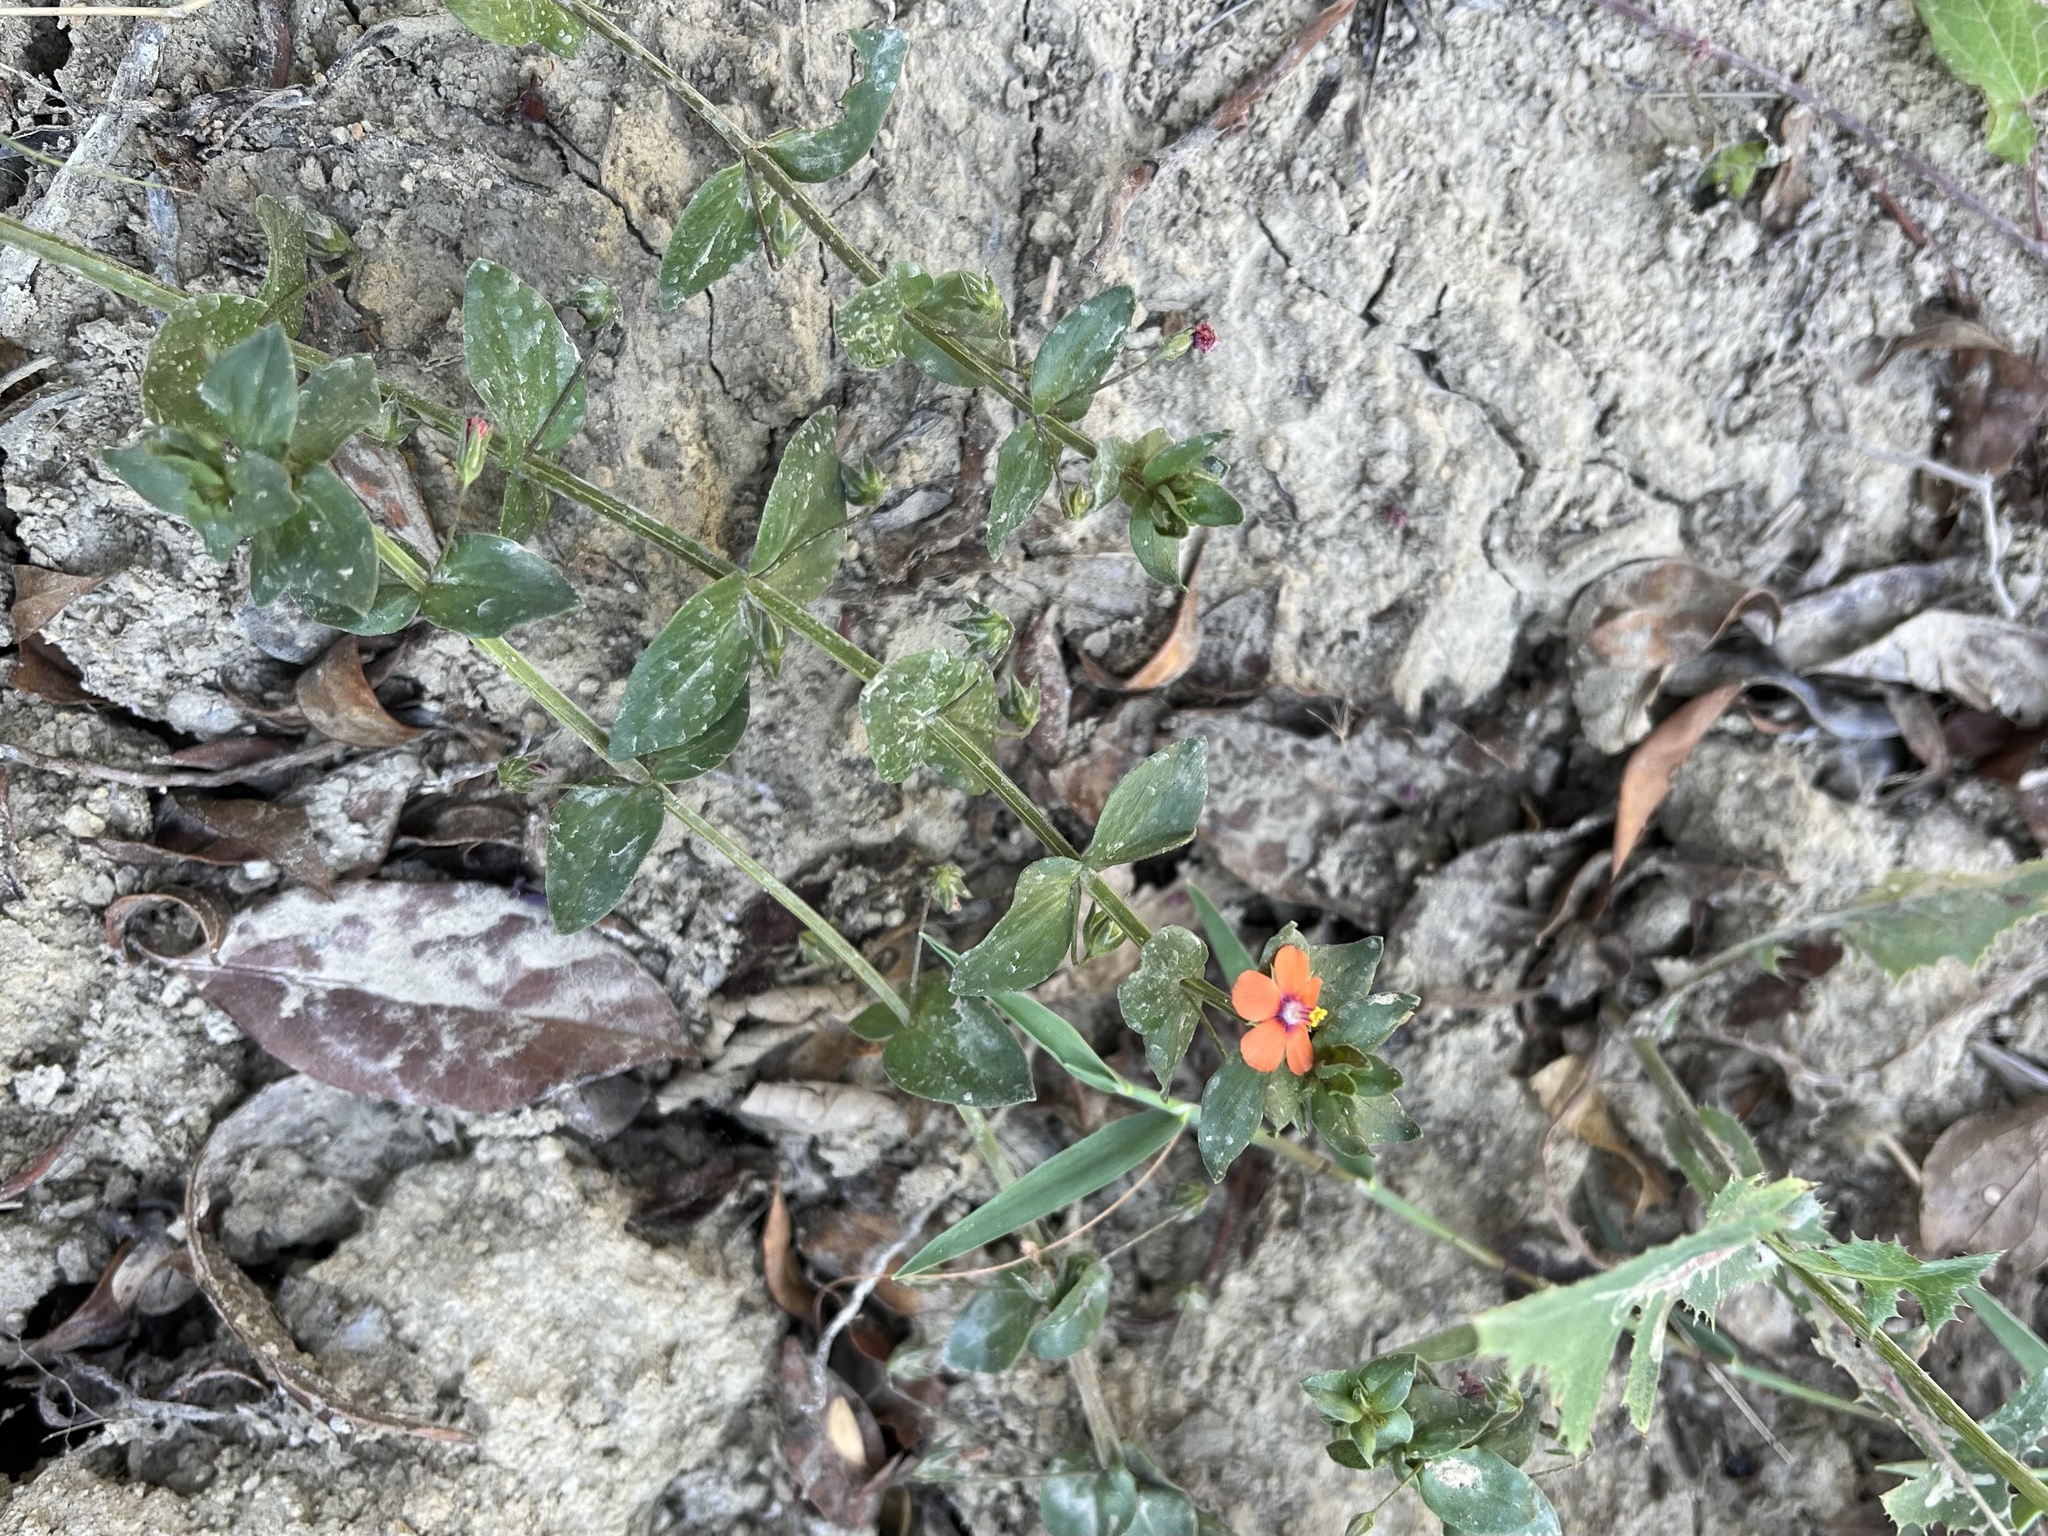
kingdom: Plantae
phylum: Tracheophyta
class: Magnoliopsida
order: Ericales
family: Primulaceae
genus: Lysimachia
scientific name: Lysimachia arvensis
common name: Scarlet pimpernel
